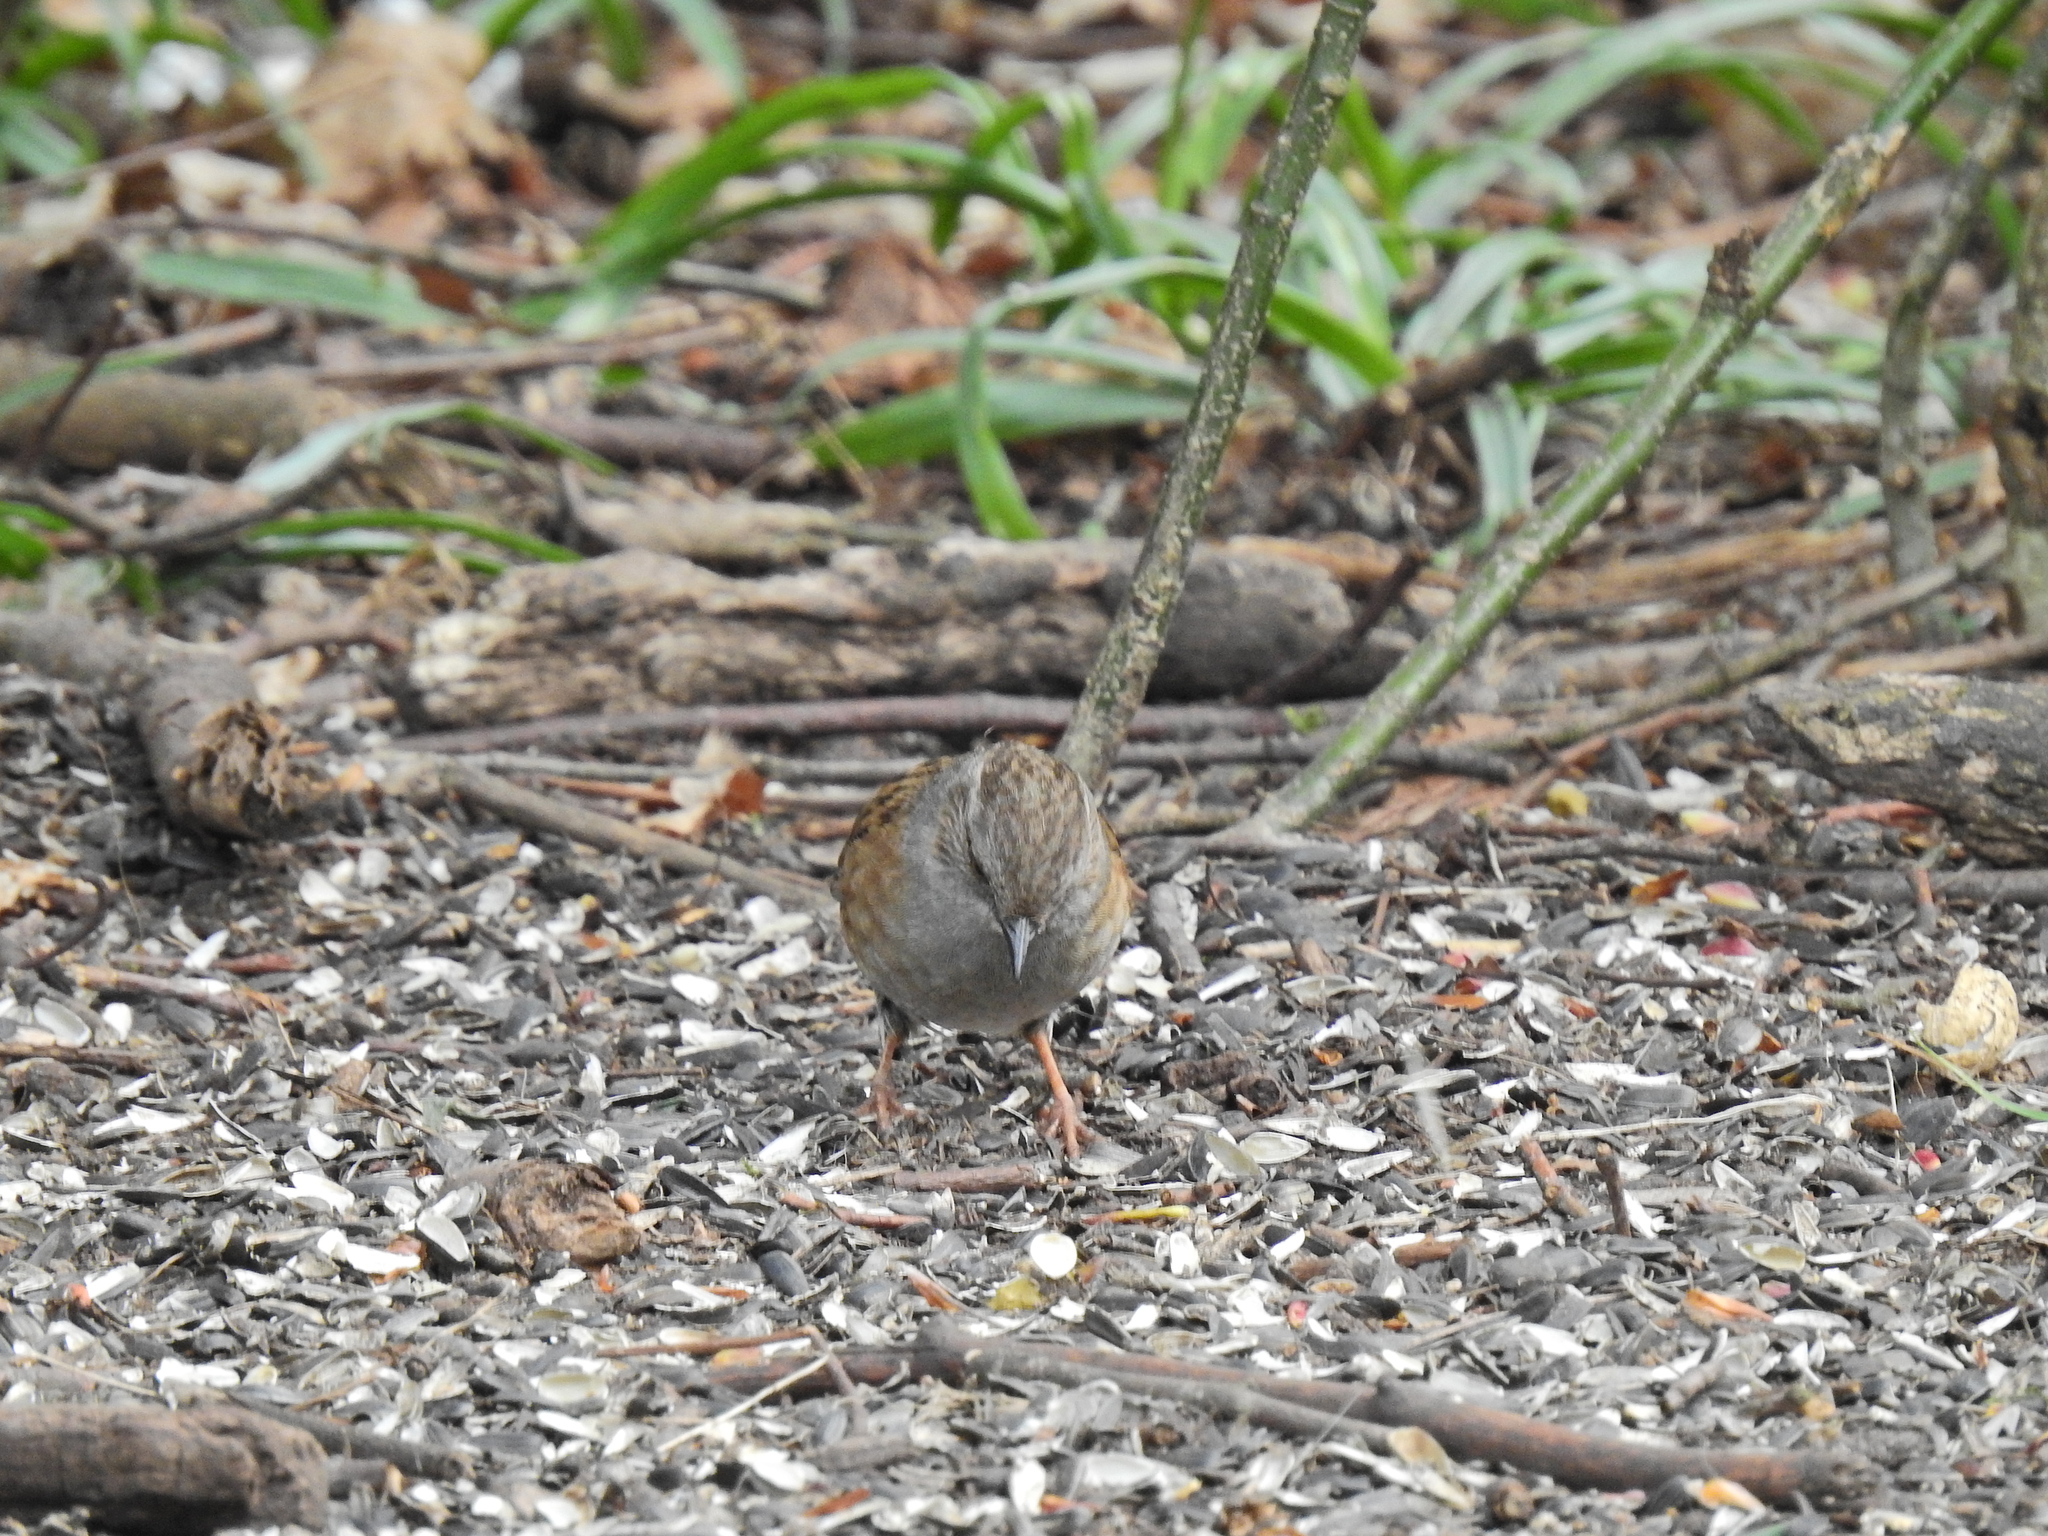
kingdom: Animalia
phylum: Chordata
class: Aves
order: Passeriformes
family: Prunellidae
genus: Prunella
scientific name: Prunella modularis
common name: Dunnock
